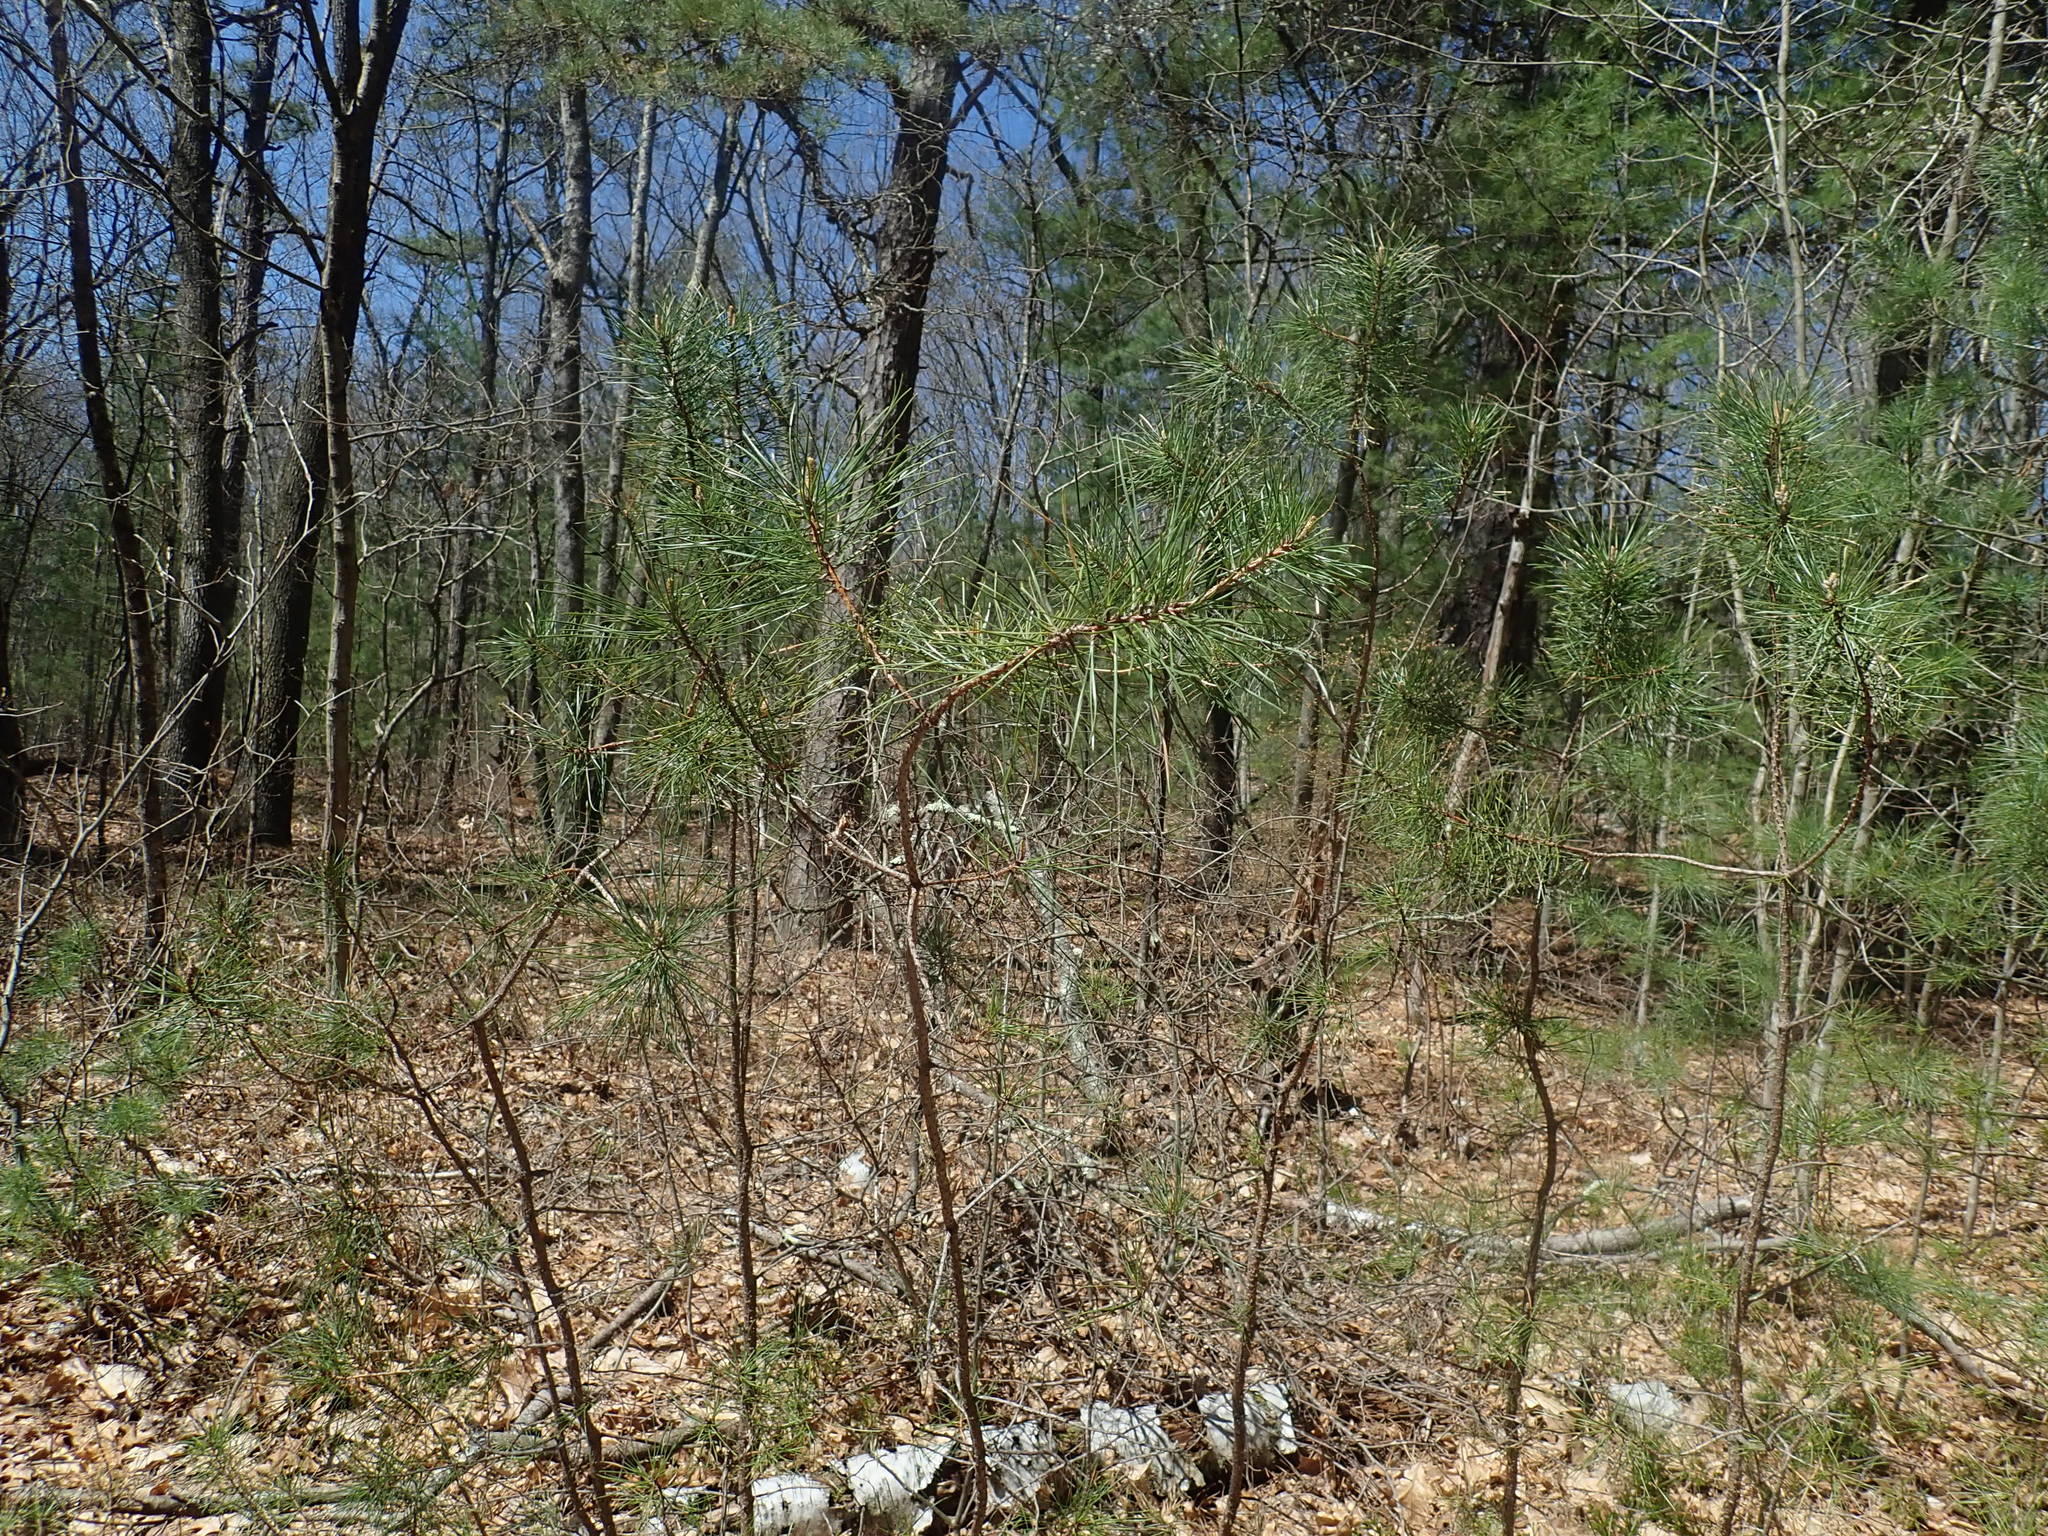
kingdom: Plantae
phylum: Tracheophyta
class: Pinopsida
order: Pinales
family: Pinaceae
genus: Pinus
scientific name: Pinus rigida
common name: Pitch pine
